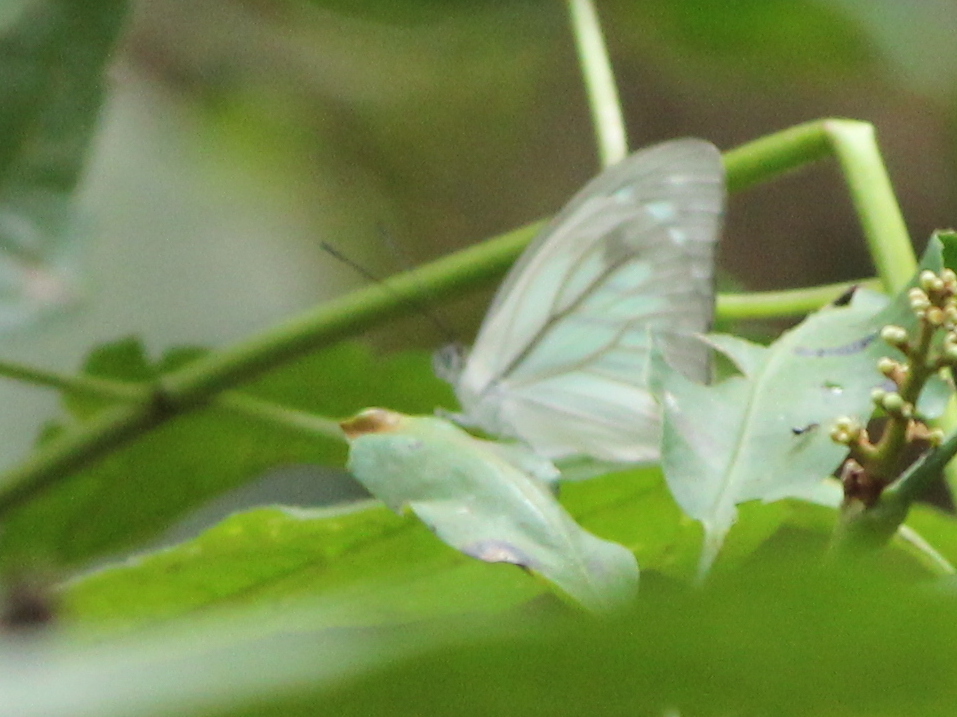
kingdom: Animalia
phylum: Arthropoda
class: Insecta
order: Lepidoptera
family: Pieridae
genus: Pareronia
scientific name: Pareronia hippia
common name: Indian wanderer
